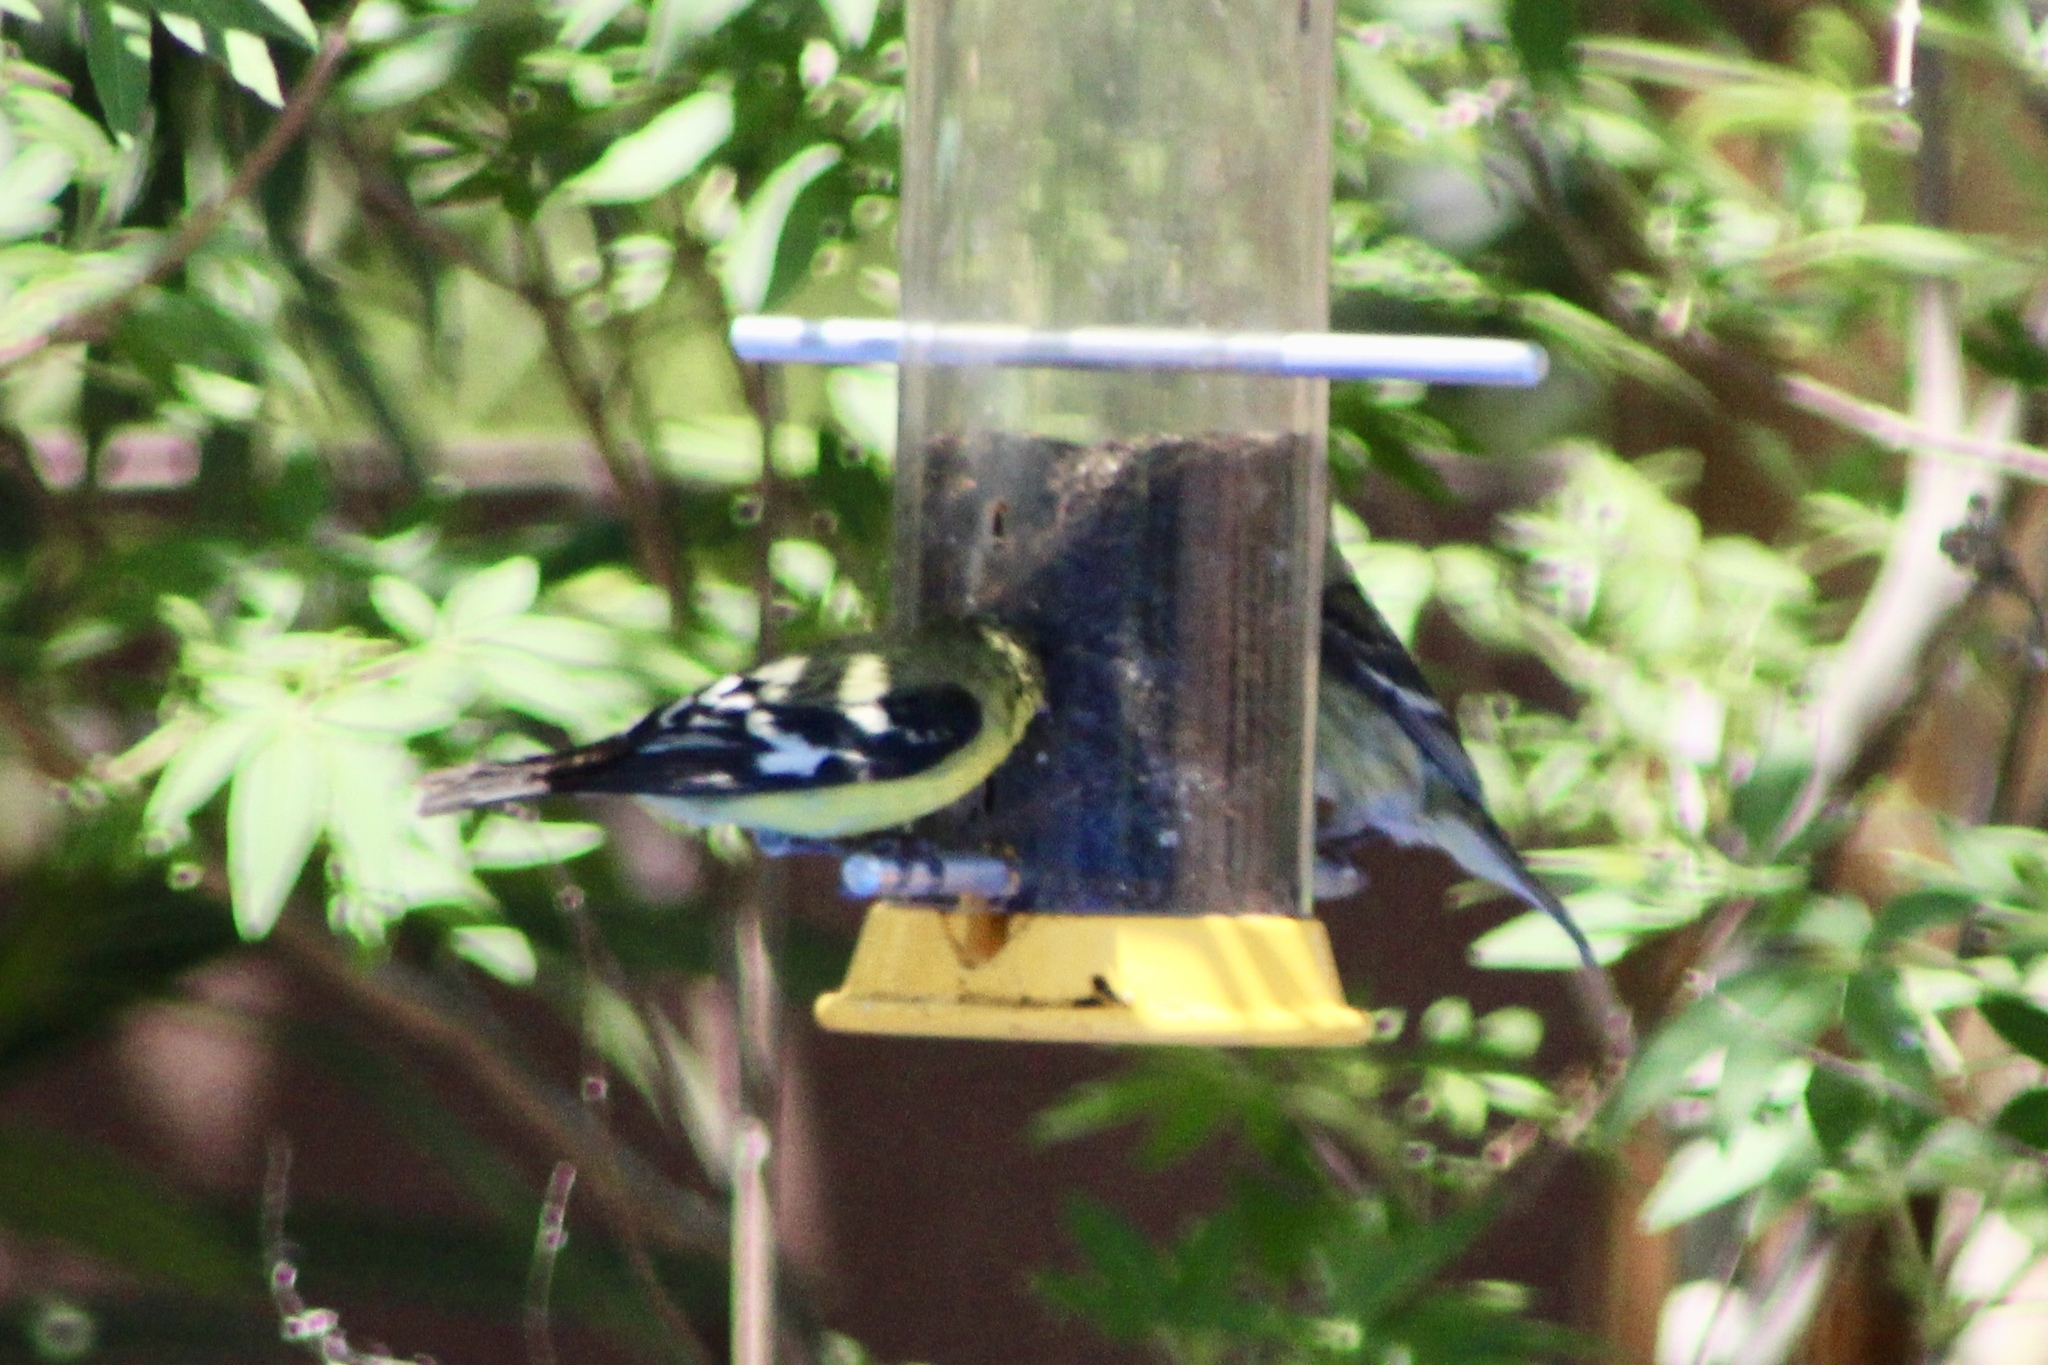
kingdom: Animalia
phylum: Chordata
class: Aves
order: Passeriformes
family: Fringillidae
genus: Spinus
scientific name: Spinus psaltria
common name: Lesser goldfinch
